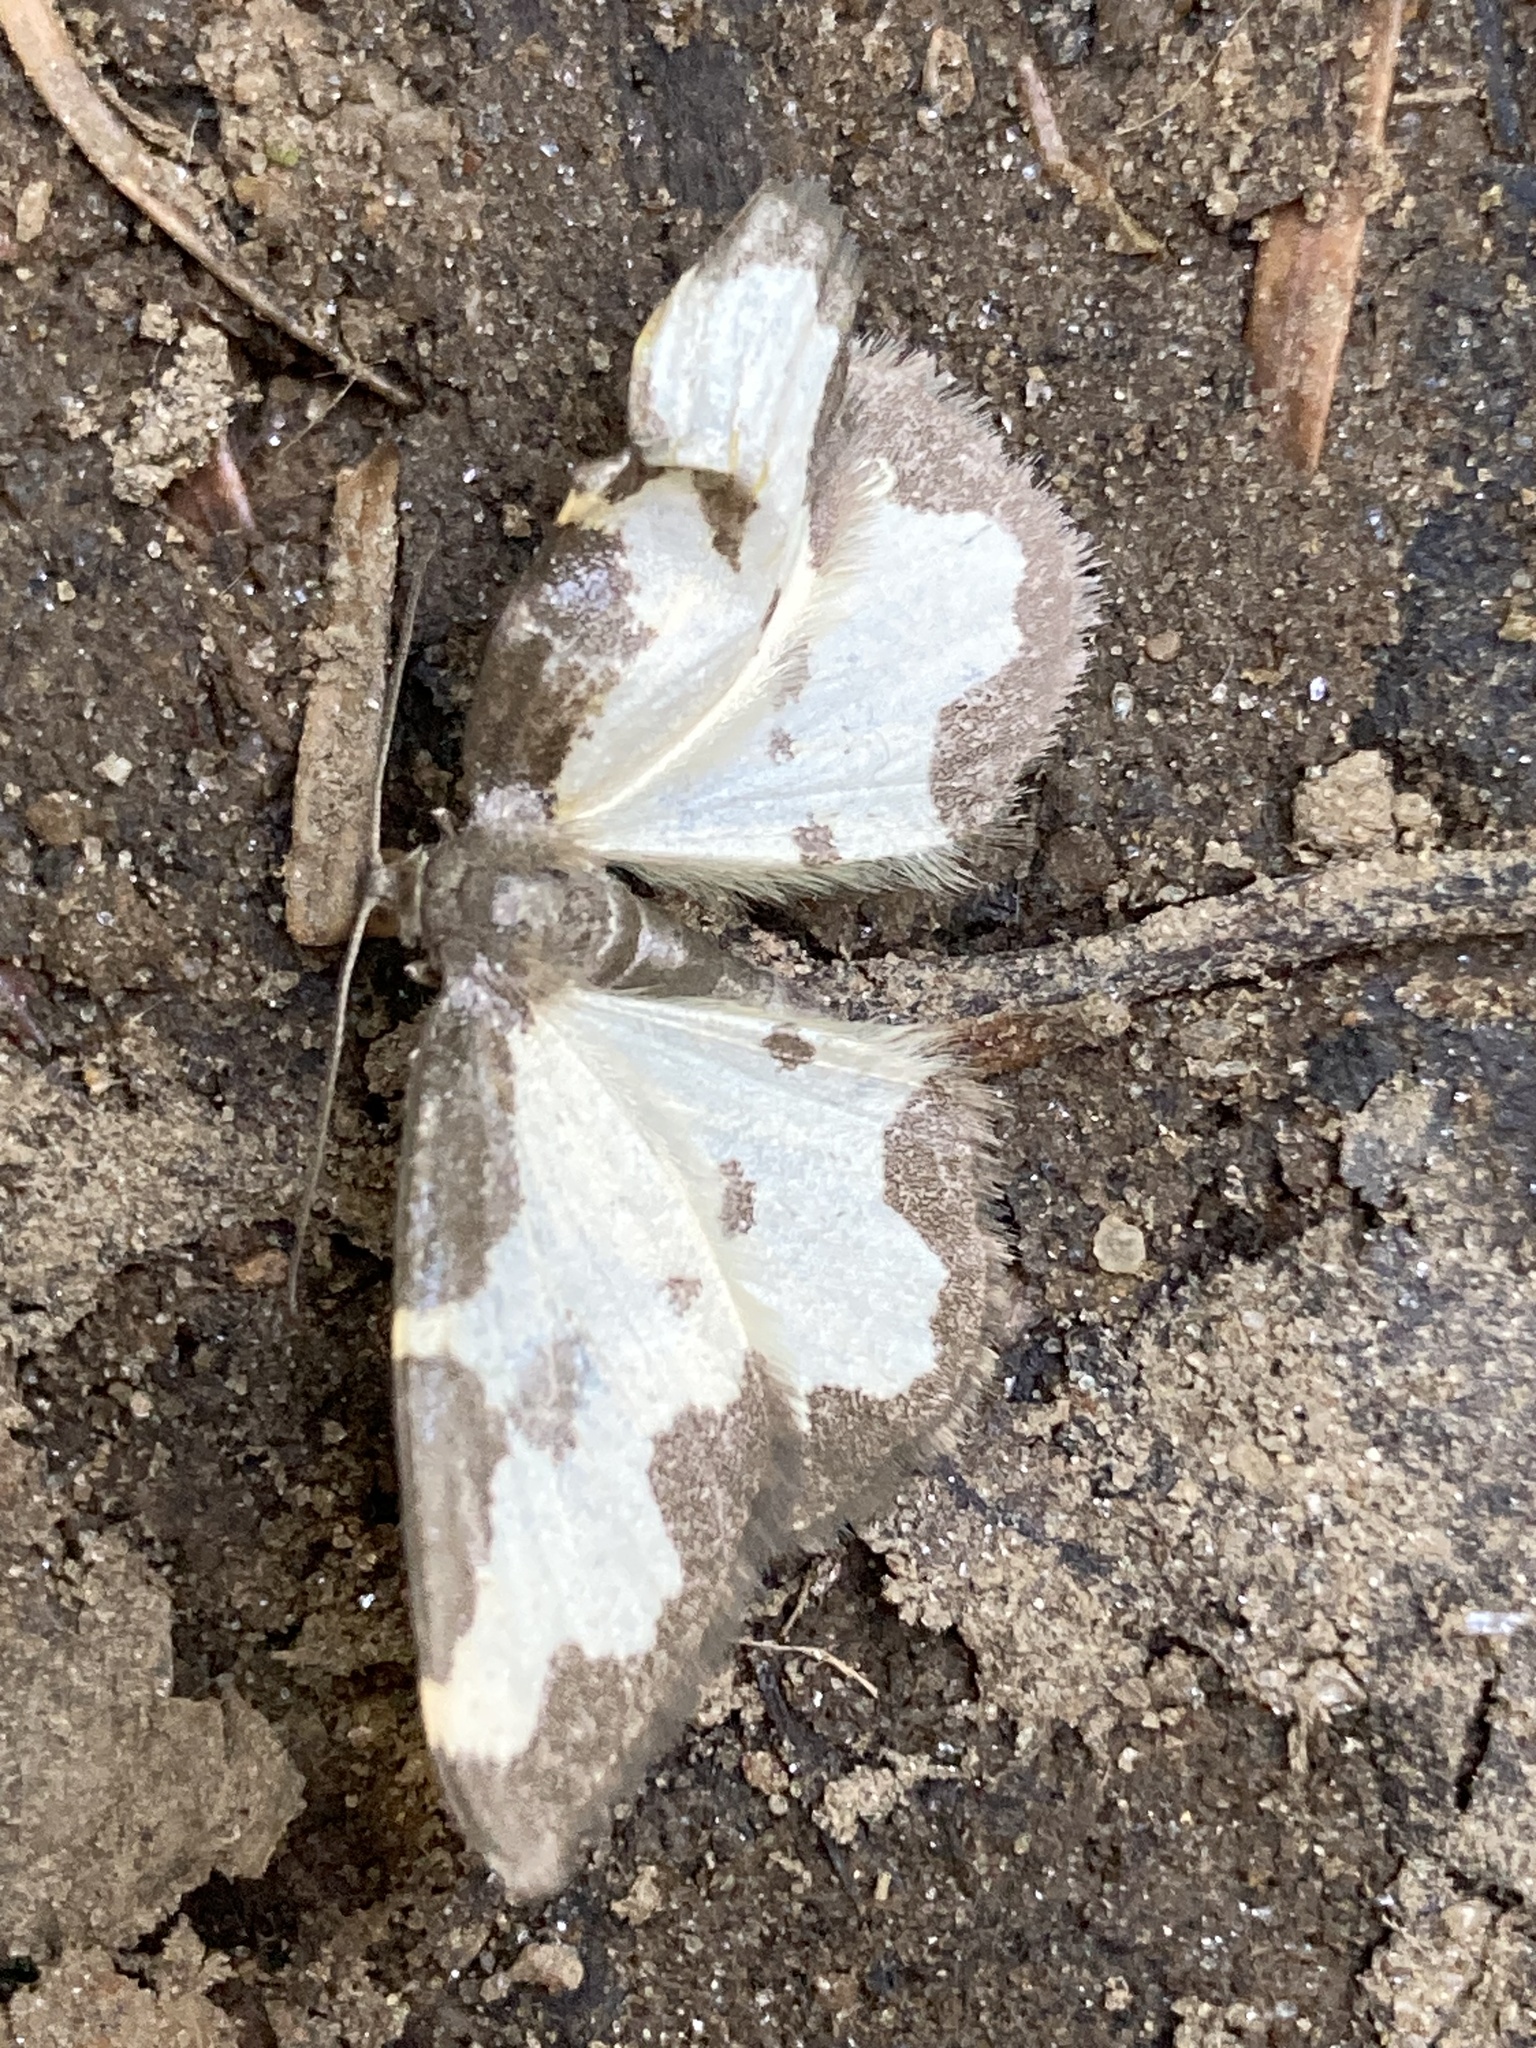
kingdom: Animalia
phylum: Arthropoda
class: Insecta
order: Lepidoptera
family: Geometridae
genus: Lomaspilis
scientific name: Lomaspilis marginata
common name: Clouded border
